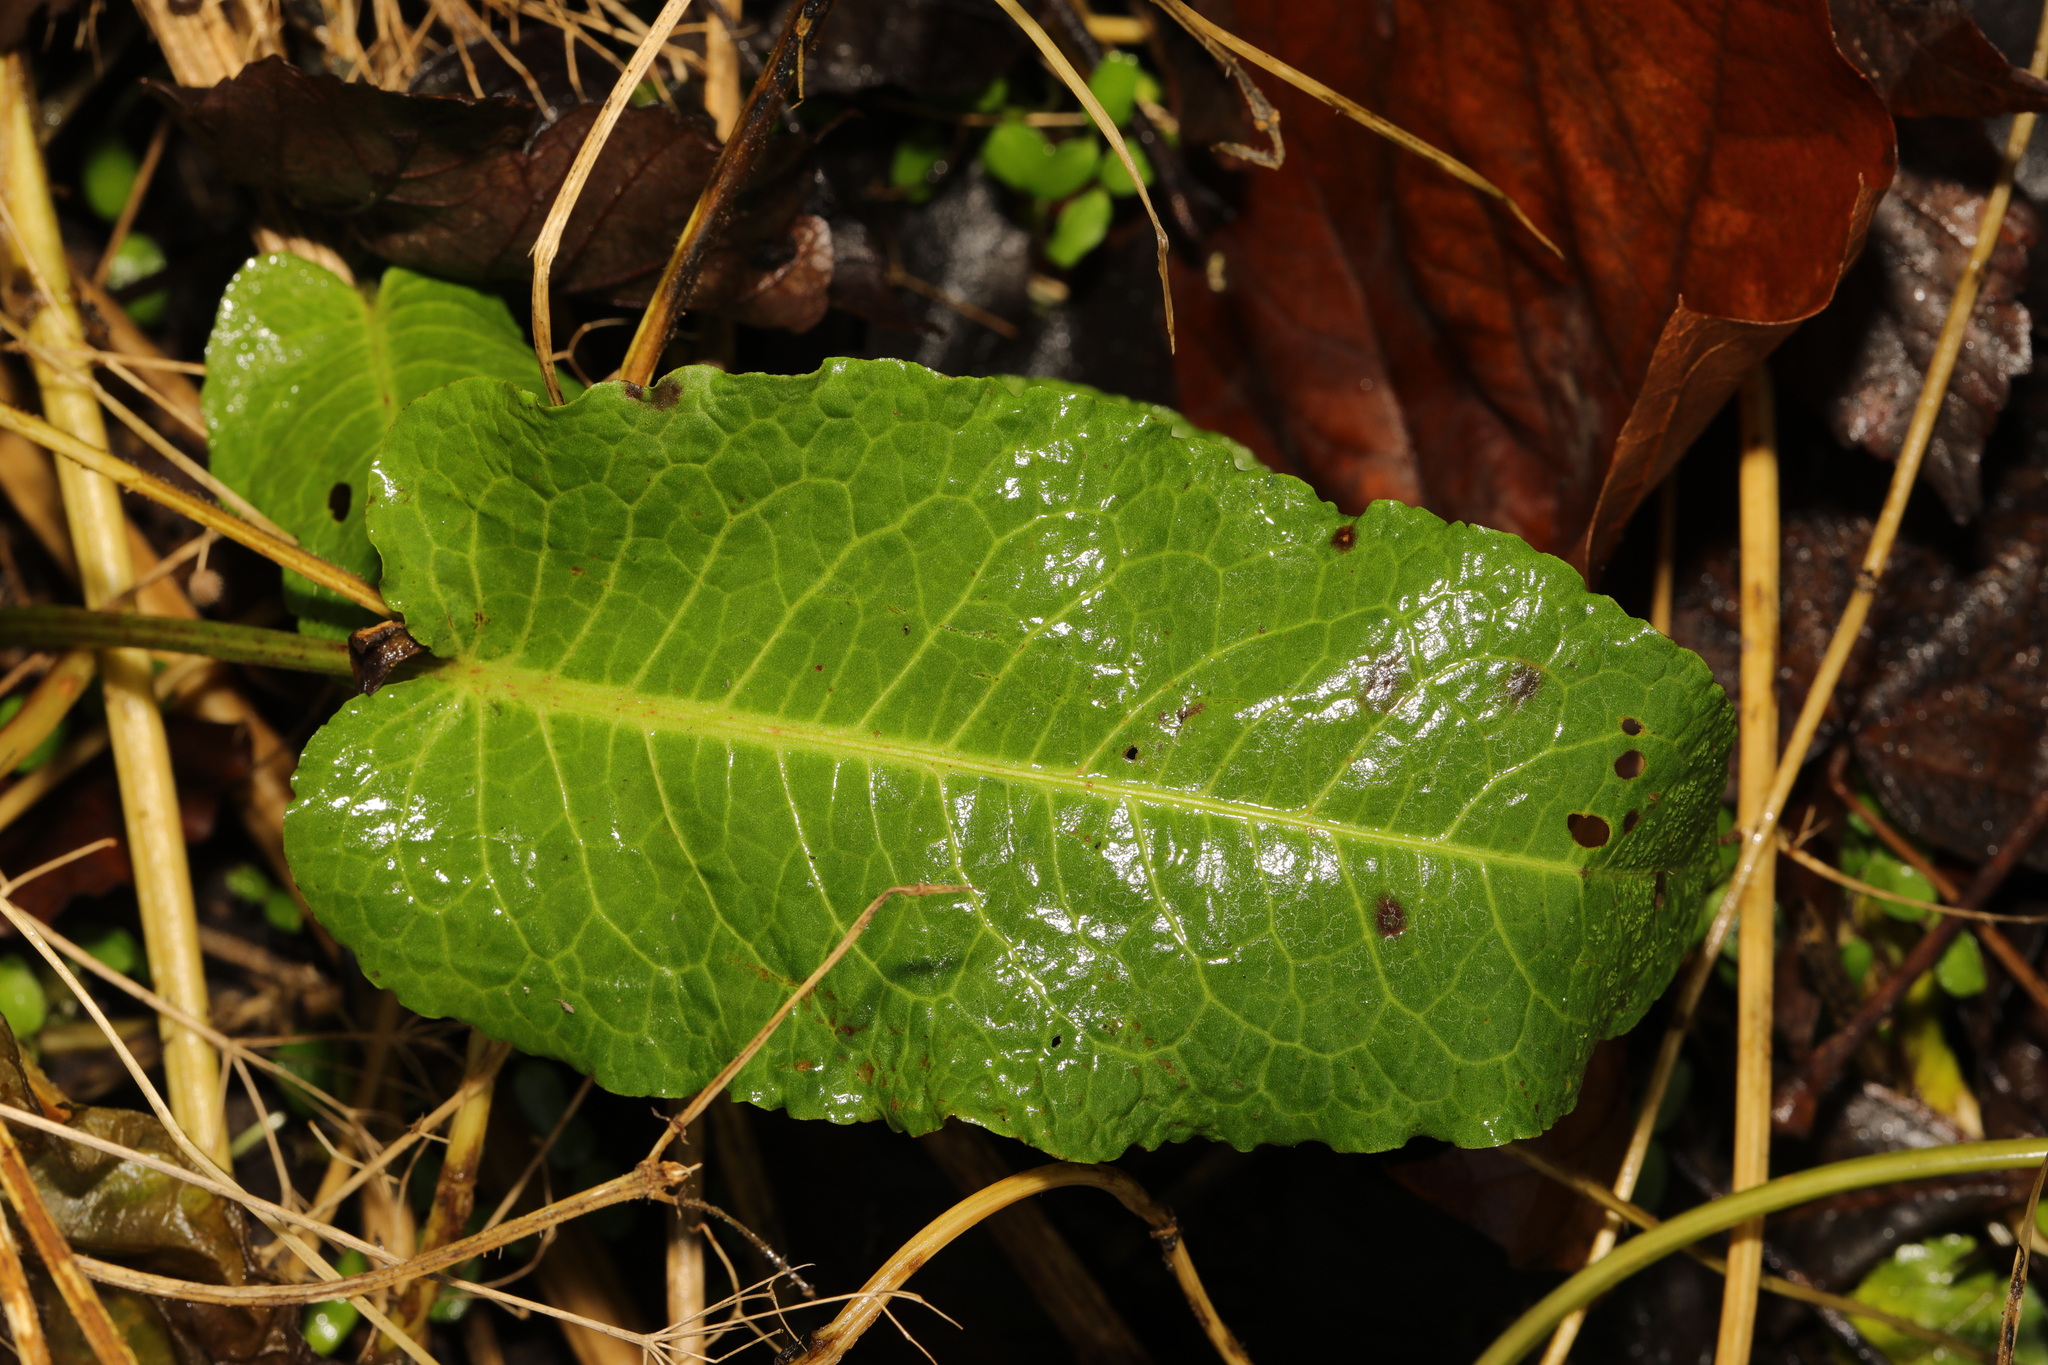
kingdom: Plantae
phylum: Tracheophyta
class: Magnoliopsida
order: Caryophyllales
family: Polygonaceae
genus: Rumex
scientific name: Rumex obtusifolius
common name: Bitter dock
